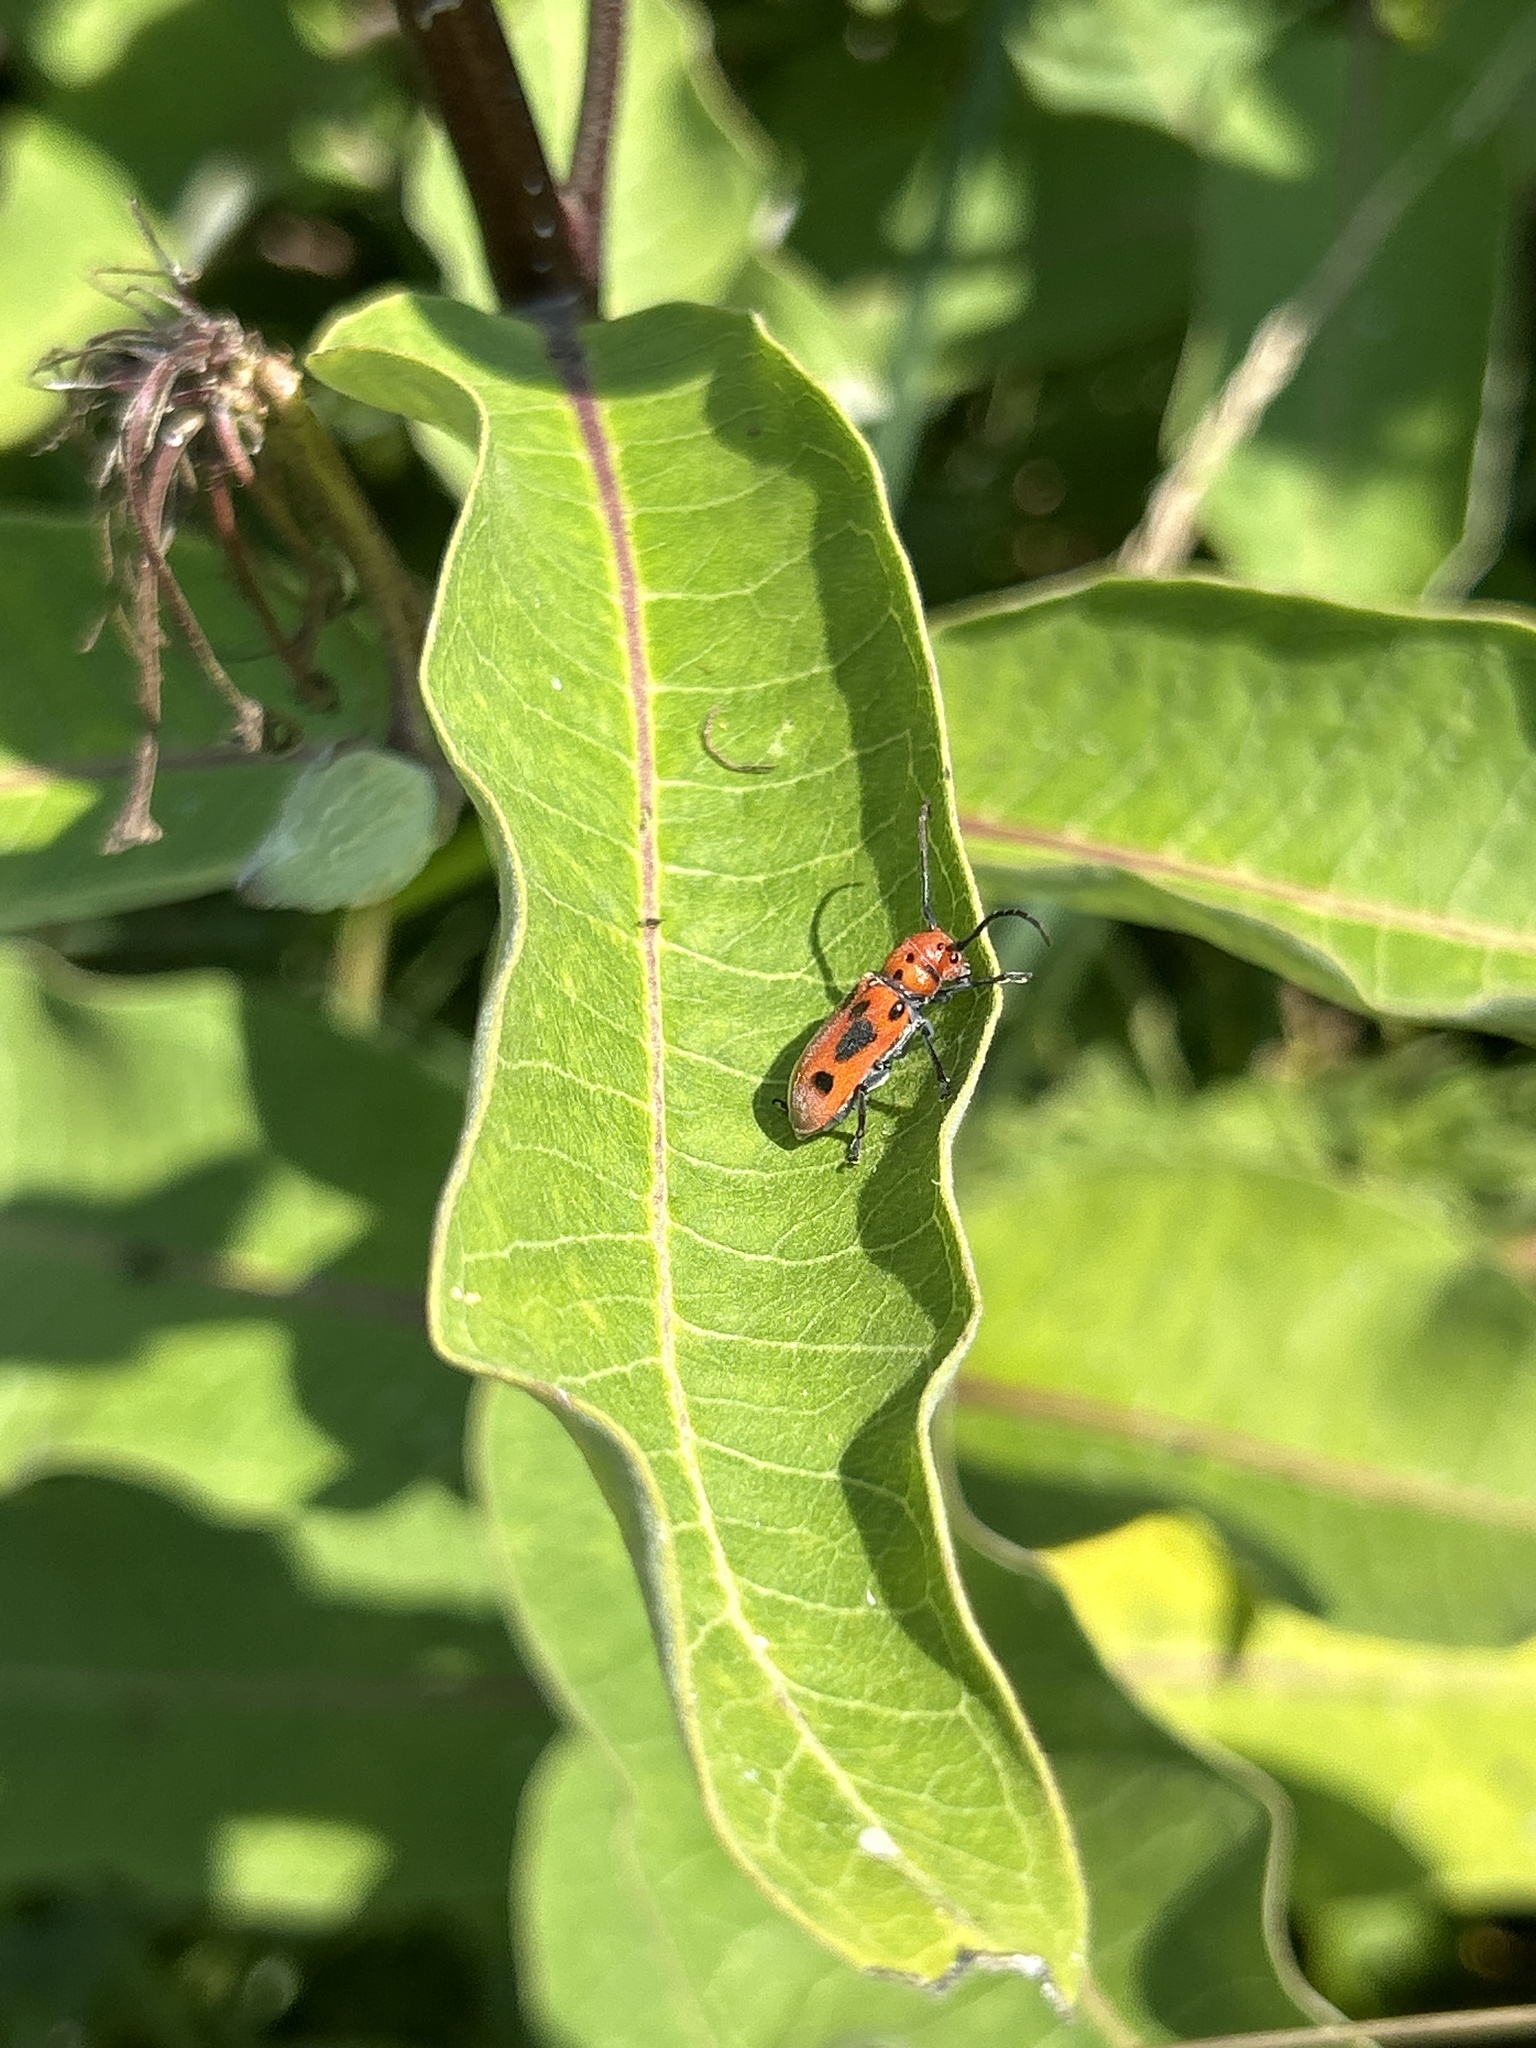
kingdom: Animalia
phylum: Arthropoda
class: Insecta
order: Coleoptera
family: Cerambycidae
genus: Tetraopes
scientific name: Tetraopes tetrophthalmus
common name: Red milkweed beetle
